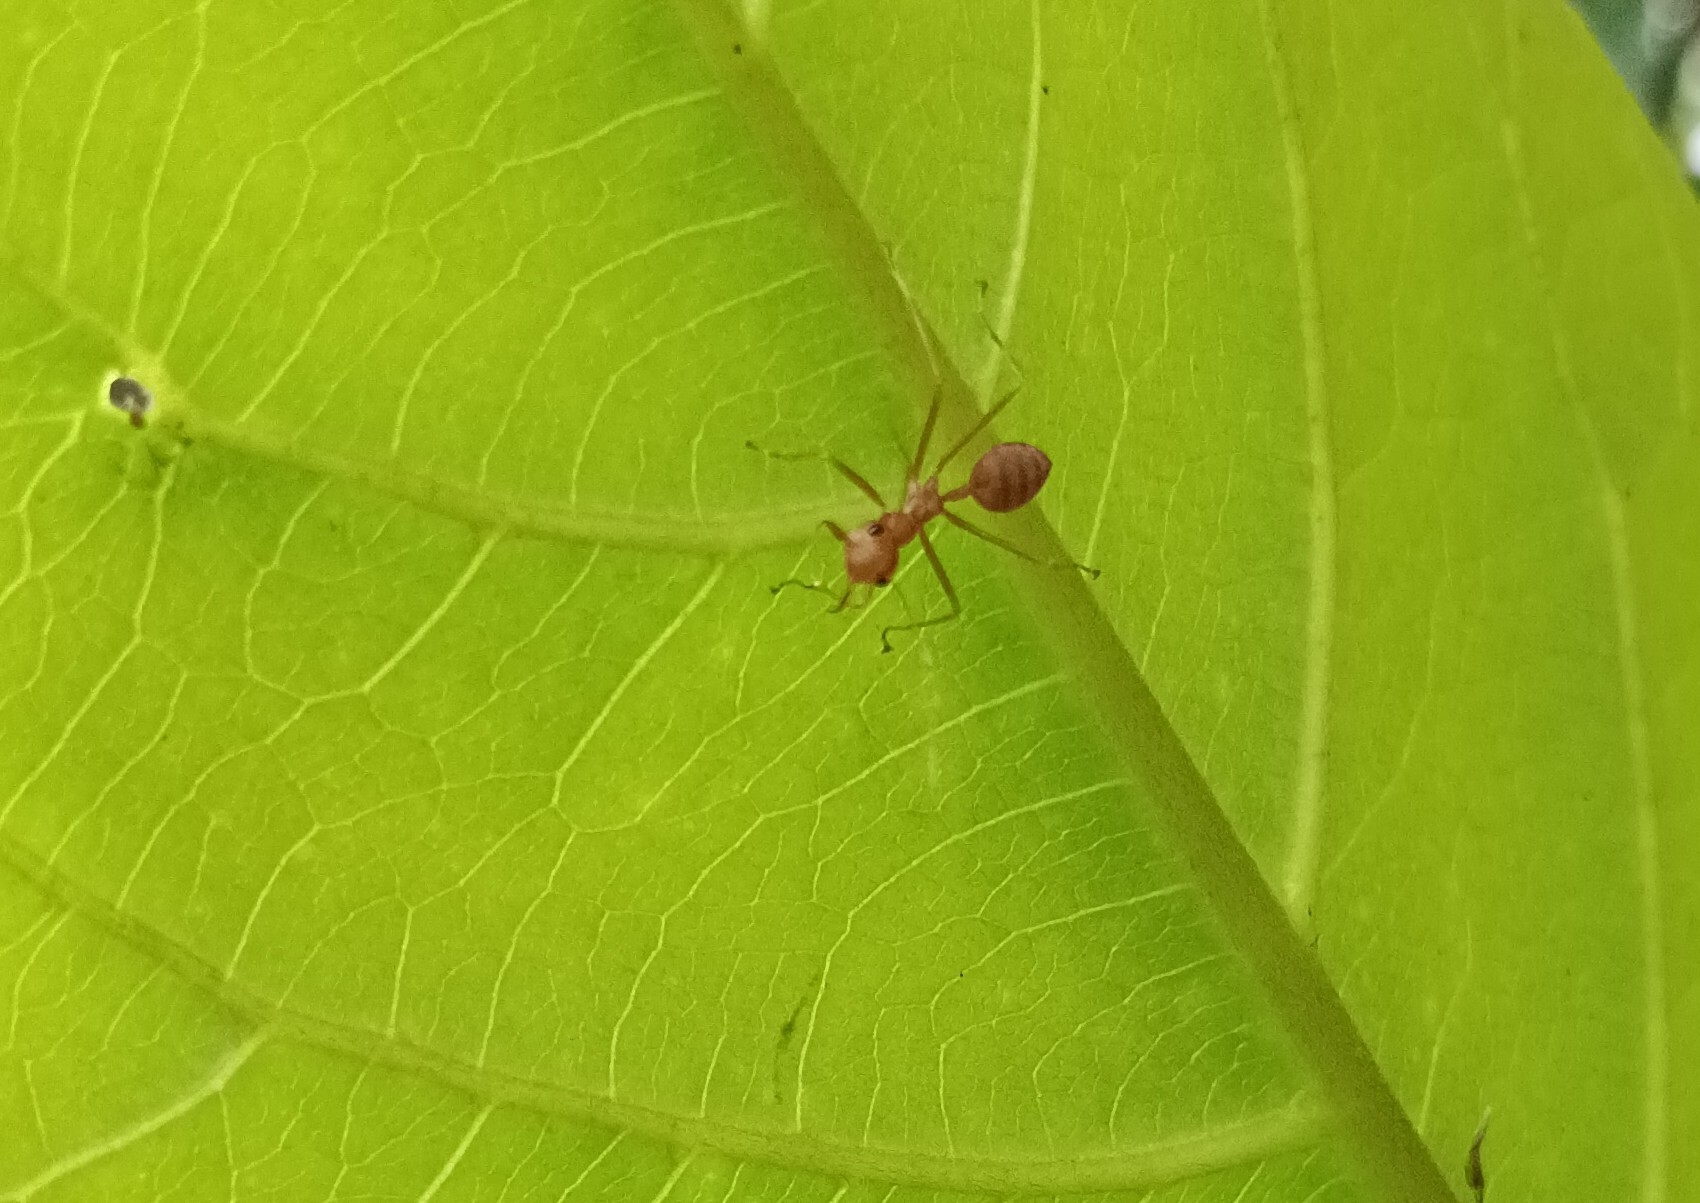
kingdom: Animalia
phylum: Arthropoda
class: Insecta
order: Hymenoptera
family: Formicidae
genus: Oecophylla
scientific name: Oecophylla smaragdina
